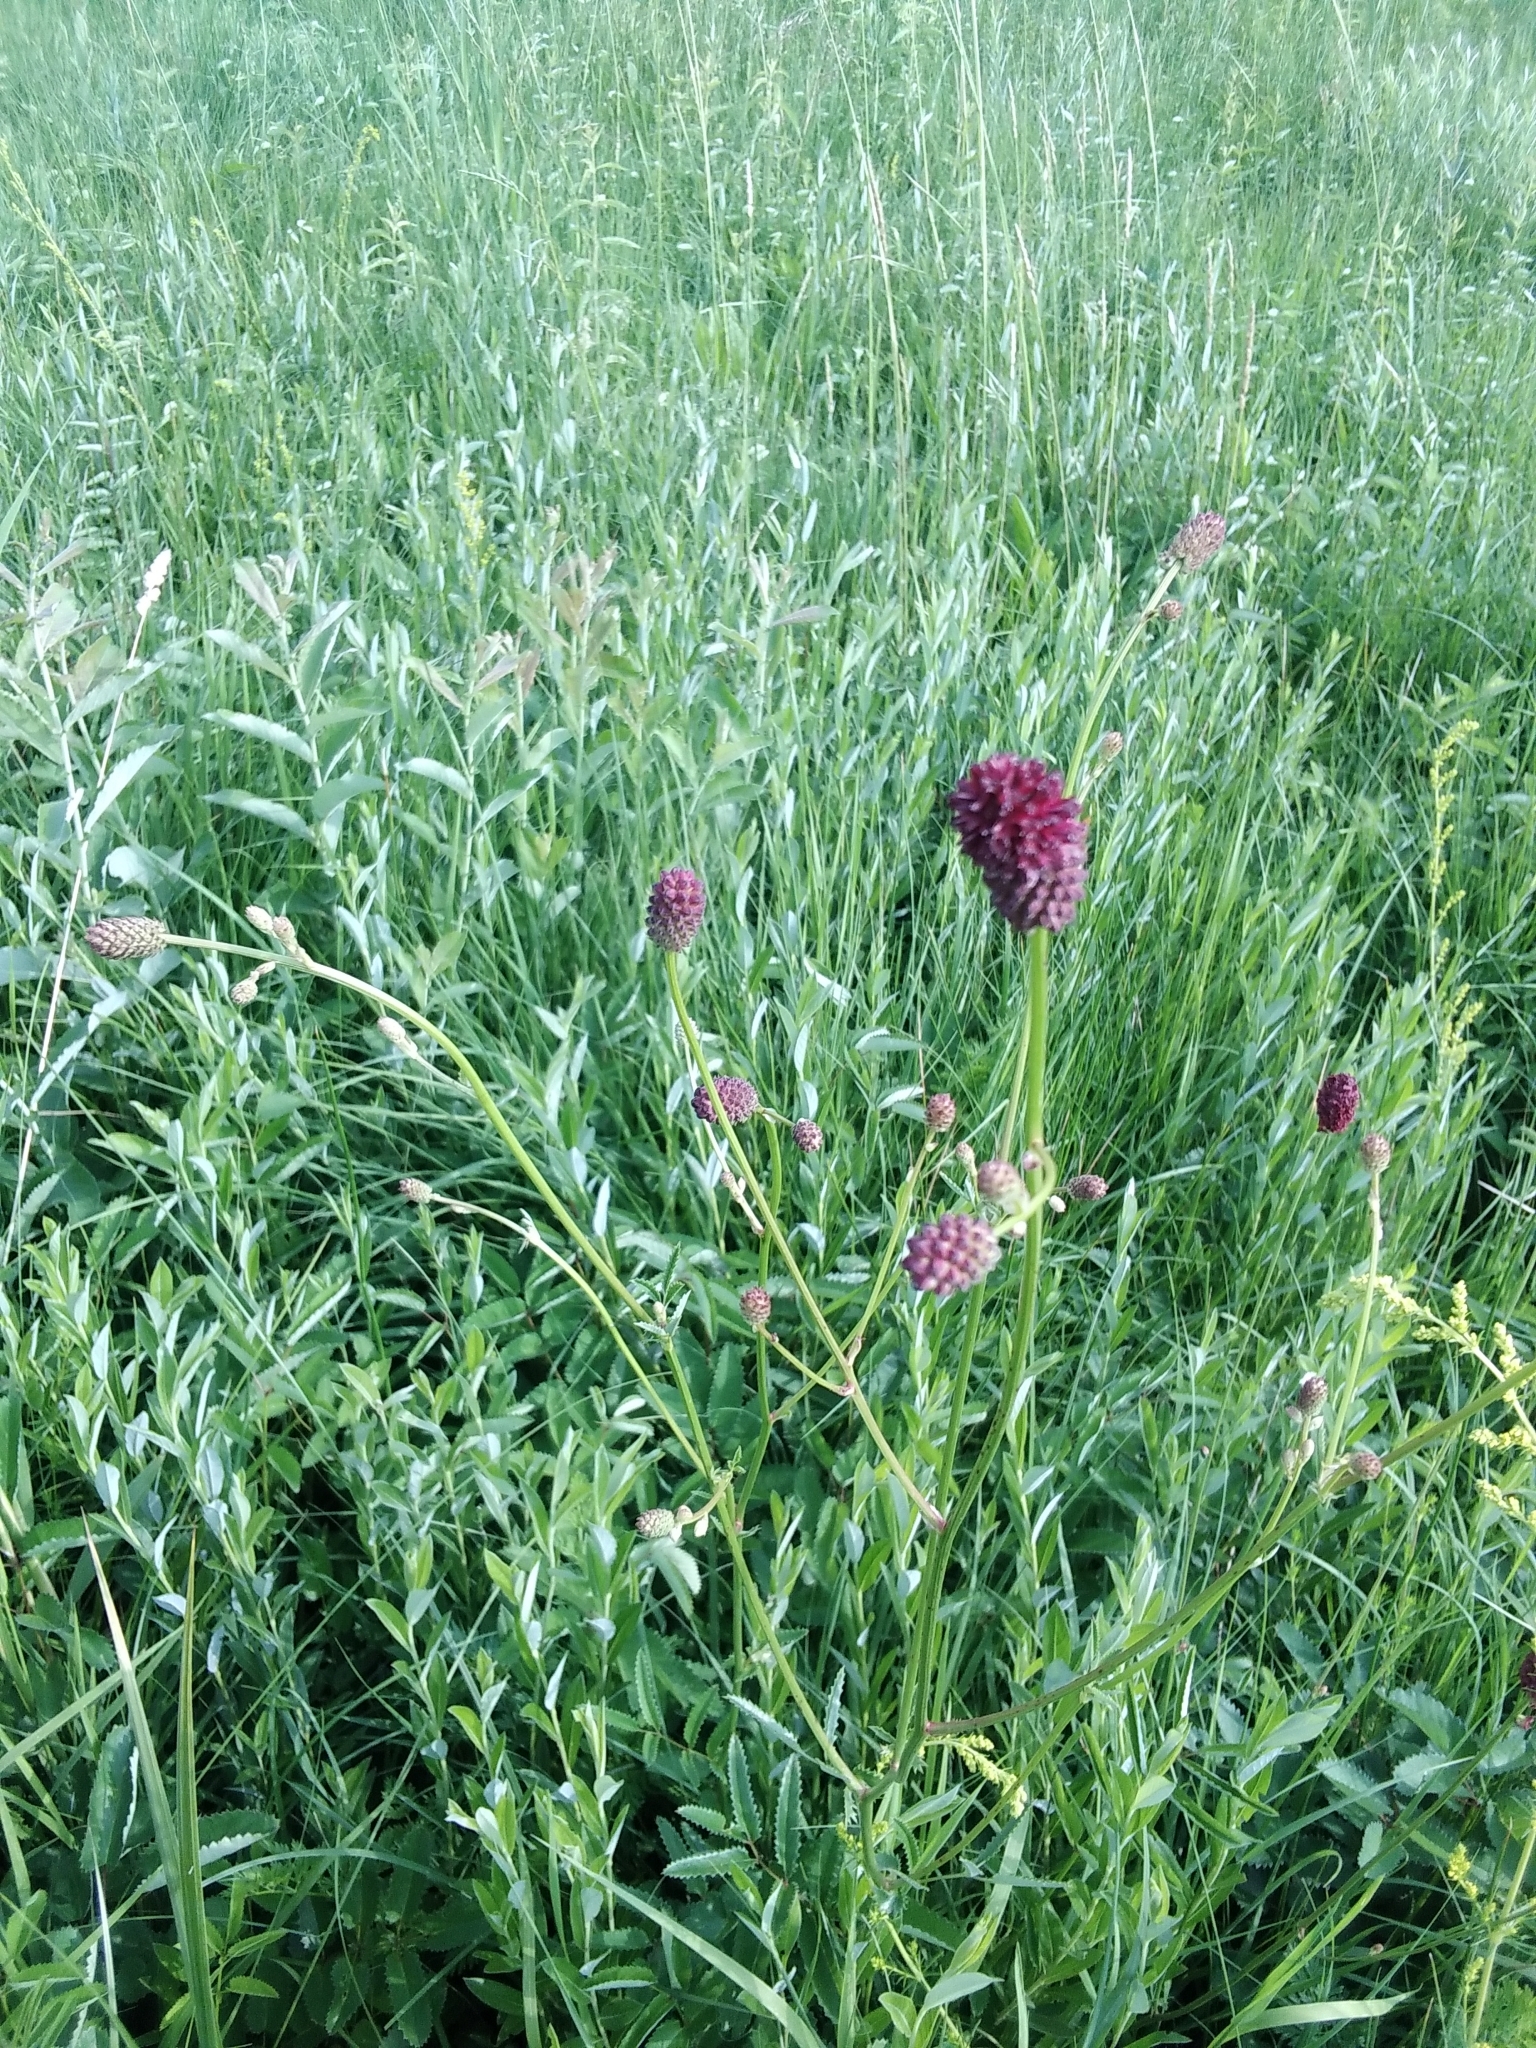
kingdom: Plantae
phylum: Tracheophyta
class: Magnoliopsida
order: Rosales
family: Rosaceae
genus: Sanguisorba
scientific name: Sanguisorba officinalis
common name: Great burnet
